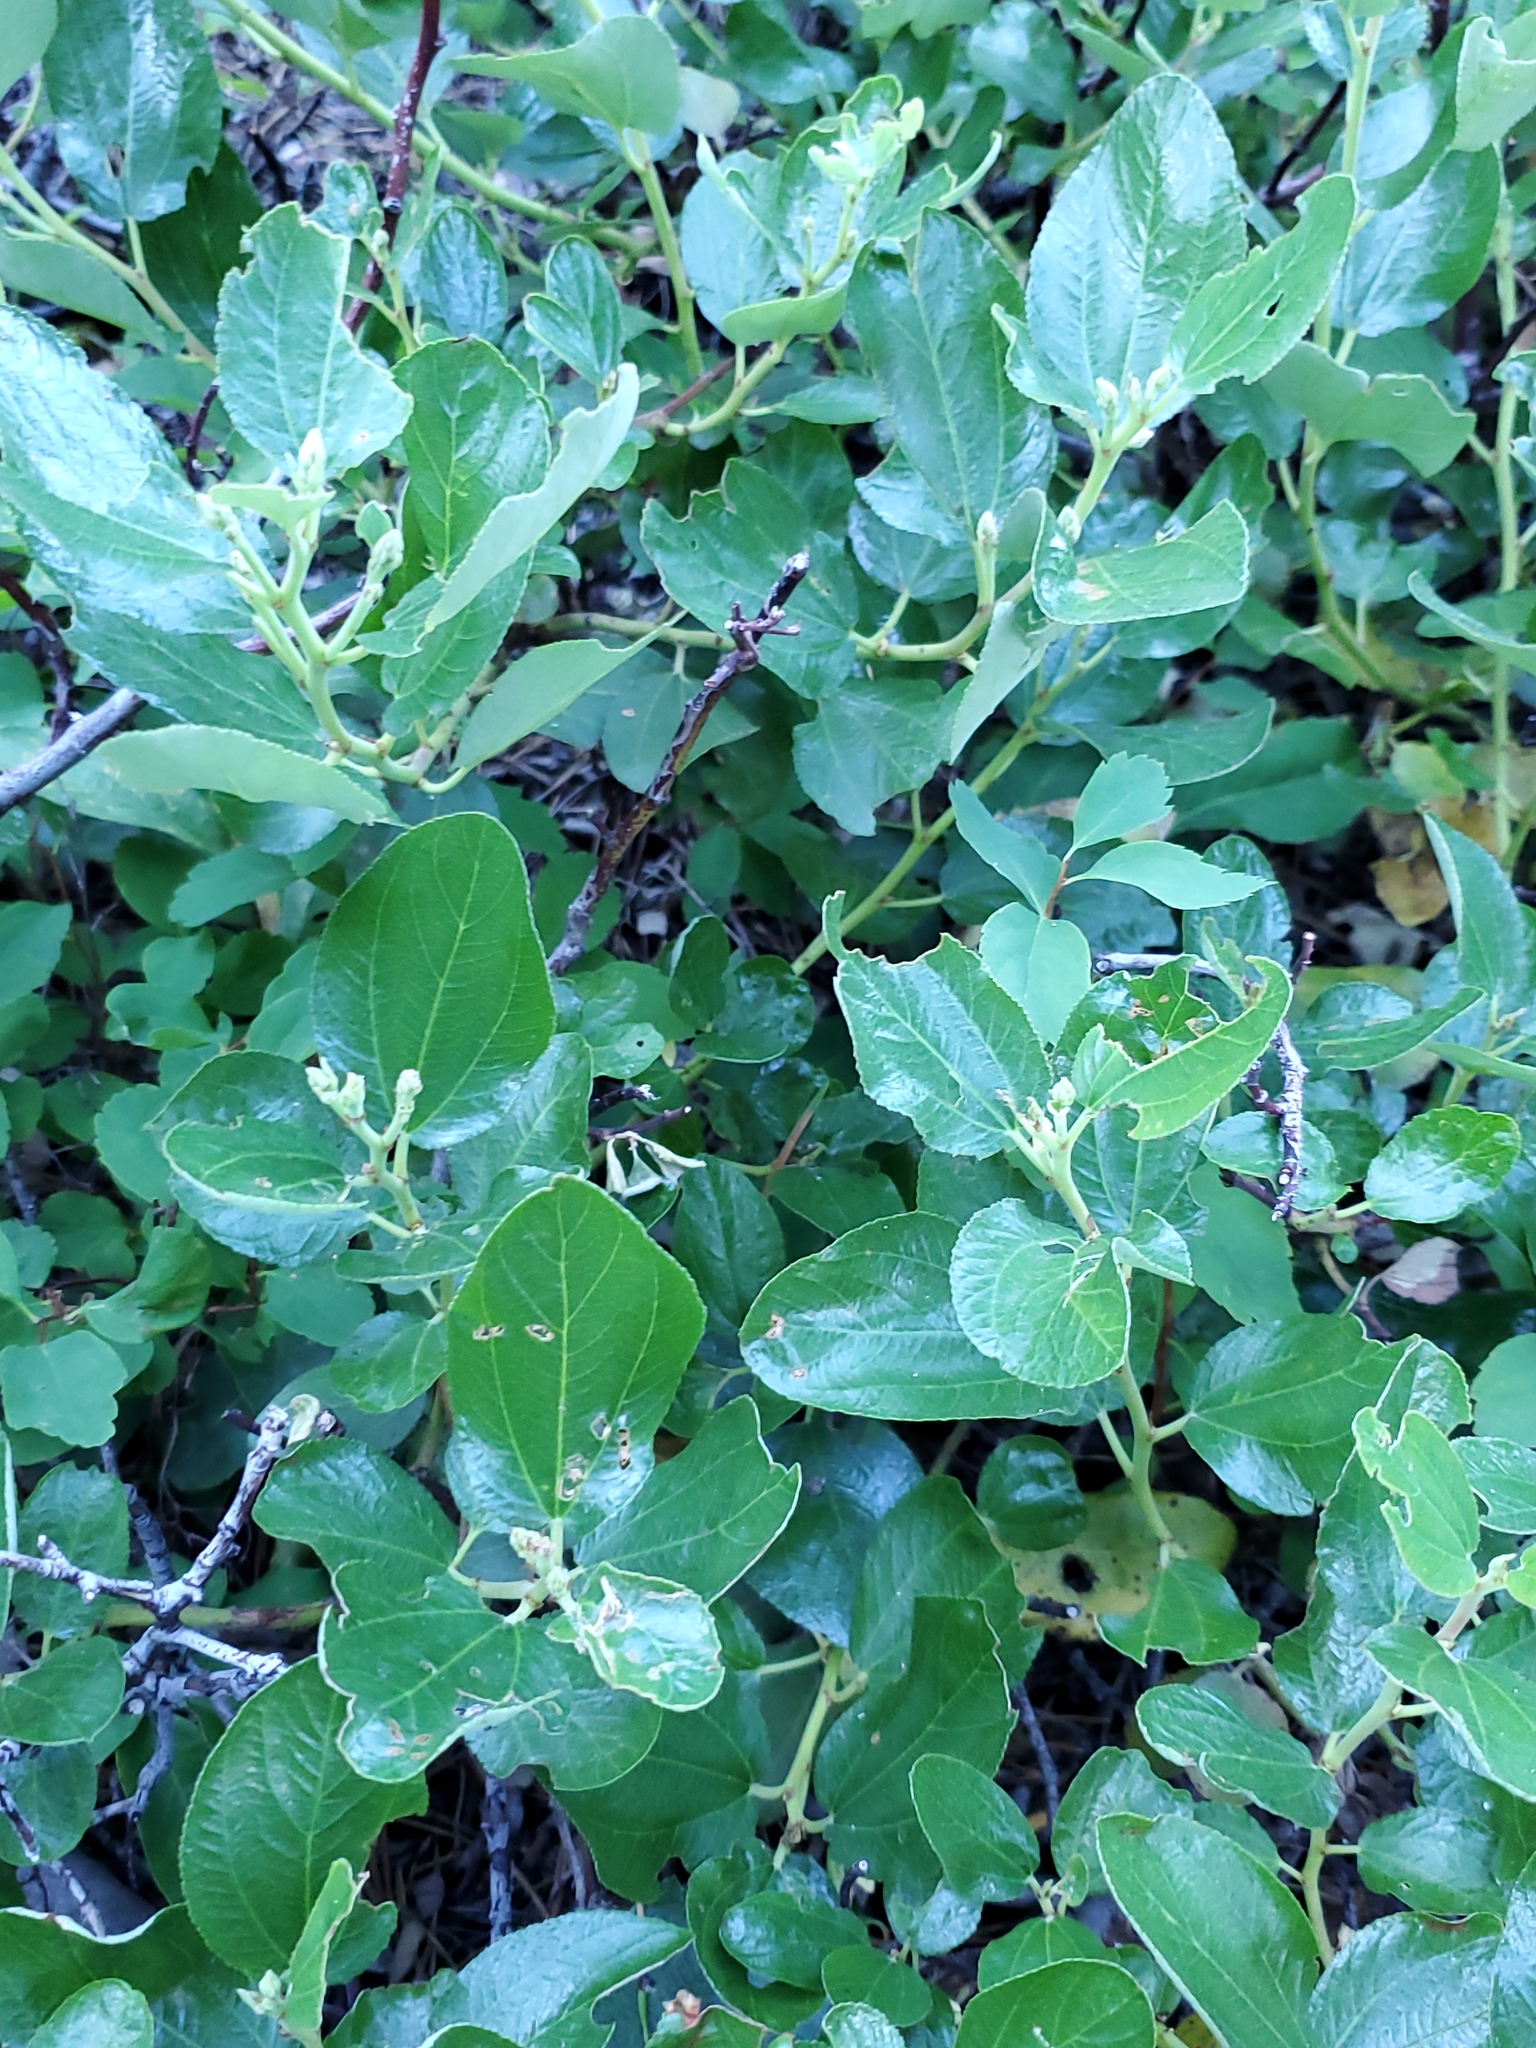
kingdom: Plantae
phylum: Tracheophyta
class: Magnoliopsida
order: Rosales
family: Rhamnaceae
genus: Ceanothus
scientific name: Ceanothus velutinus
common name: Snowbrush
